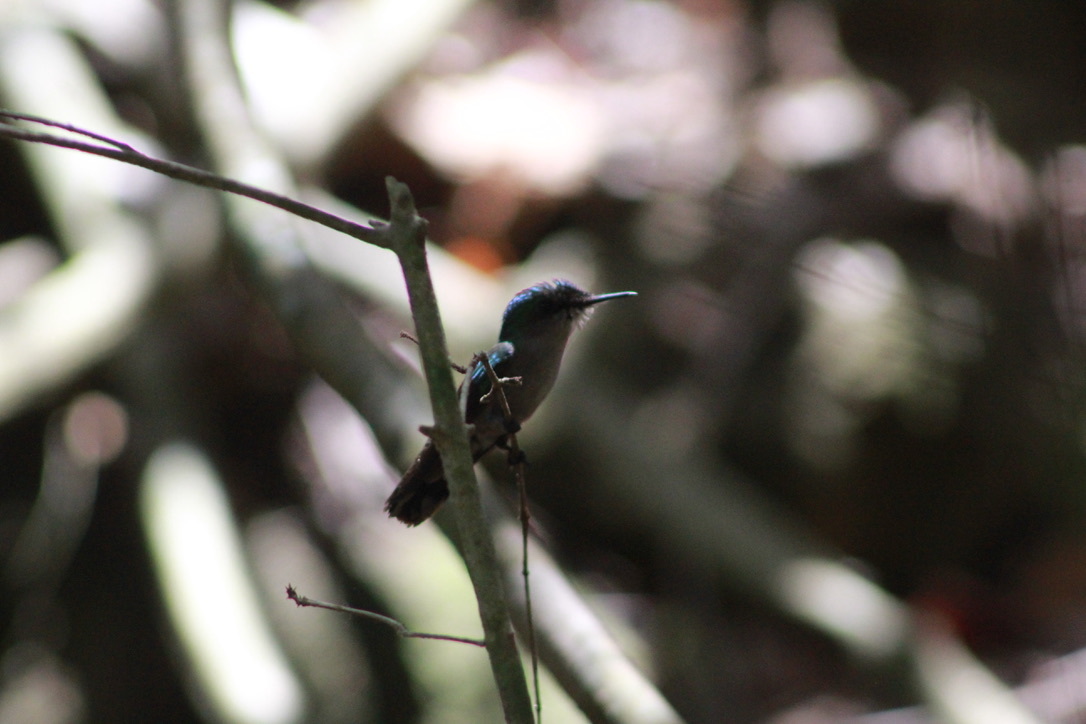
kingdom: Animalia
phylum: Chordata
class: Aves
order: Apodiformes
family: Trochilidae
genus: Orthorhyncus
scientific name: Orthorhyncus cristatus
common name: Antillean crested hummingbird
